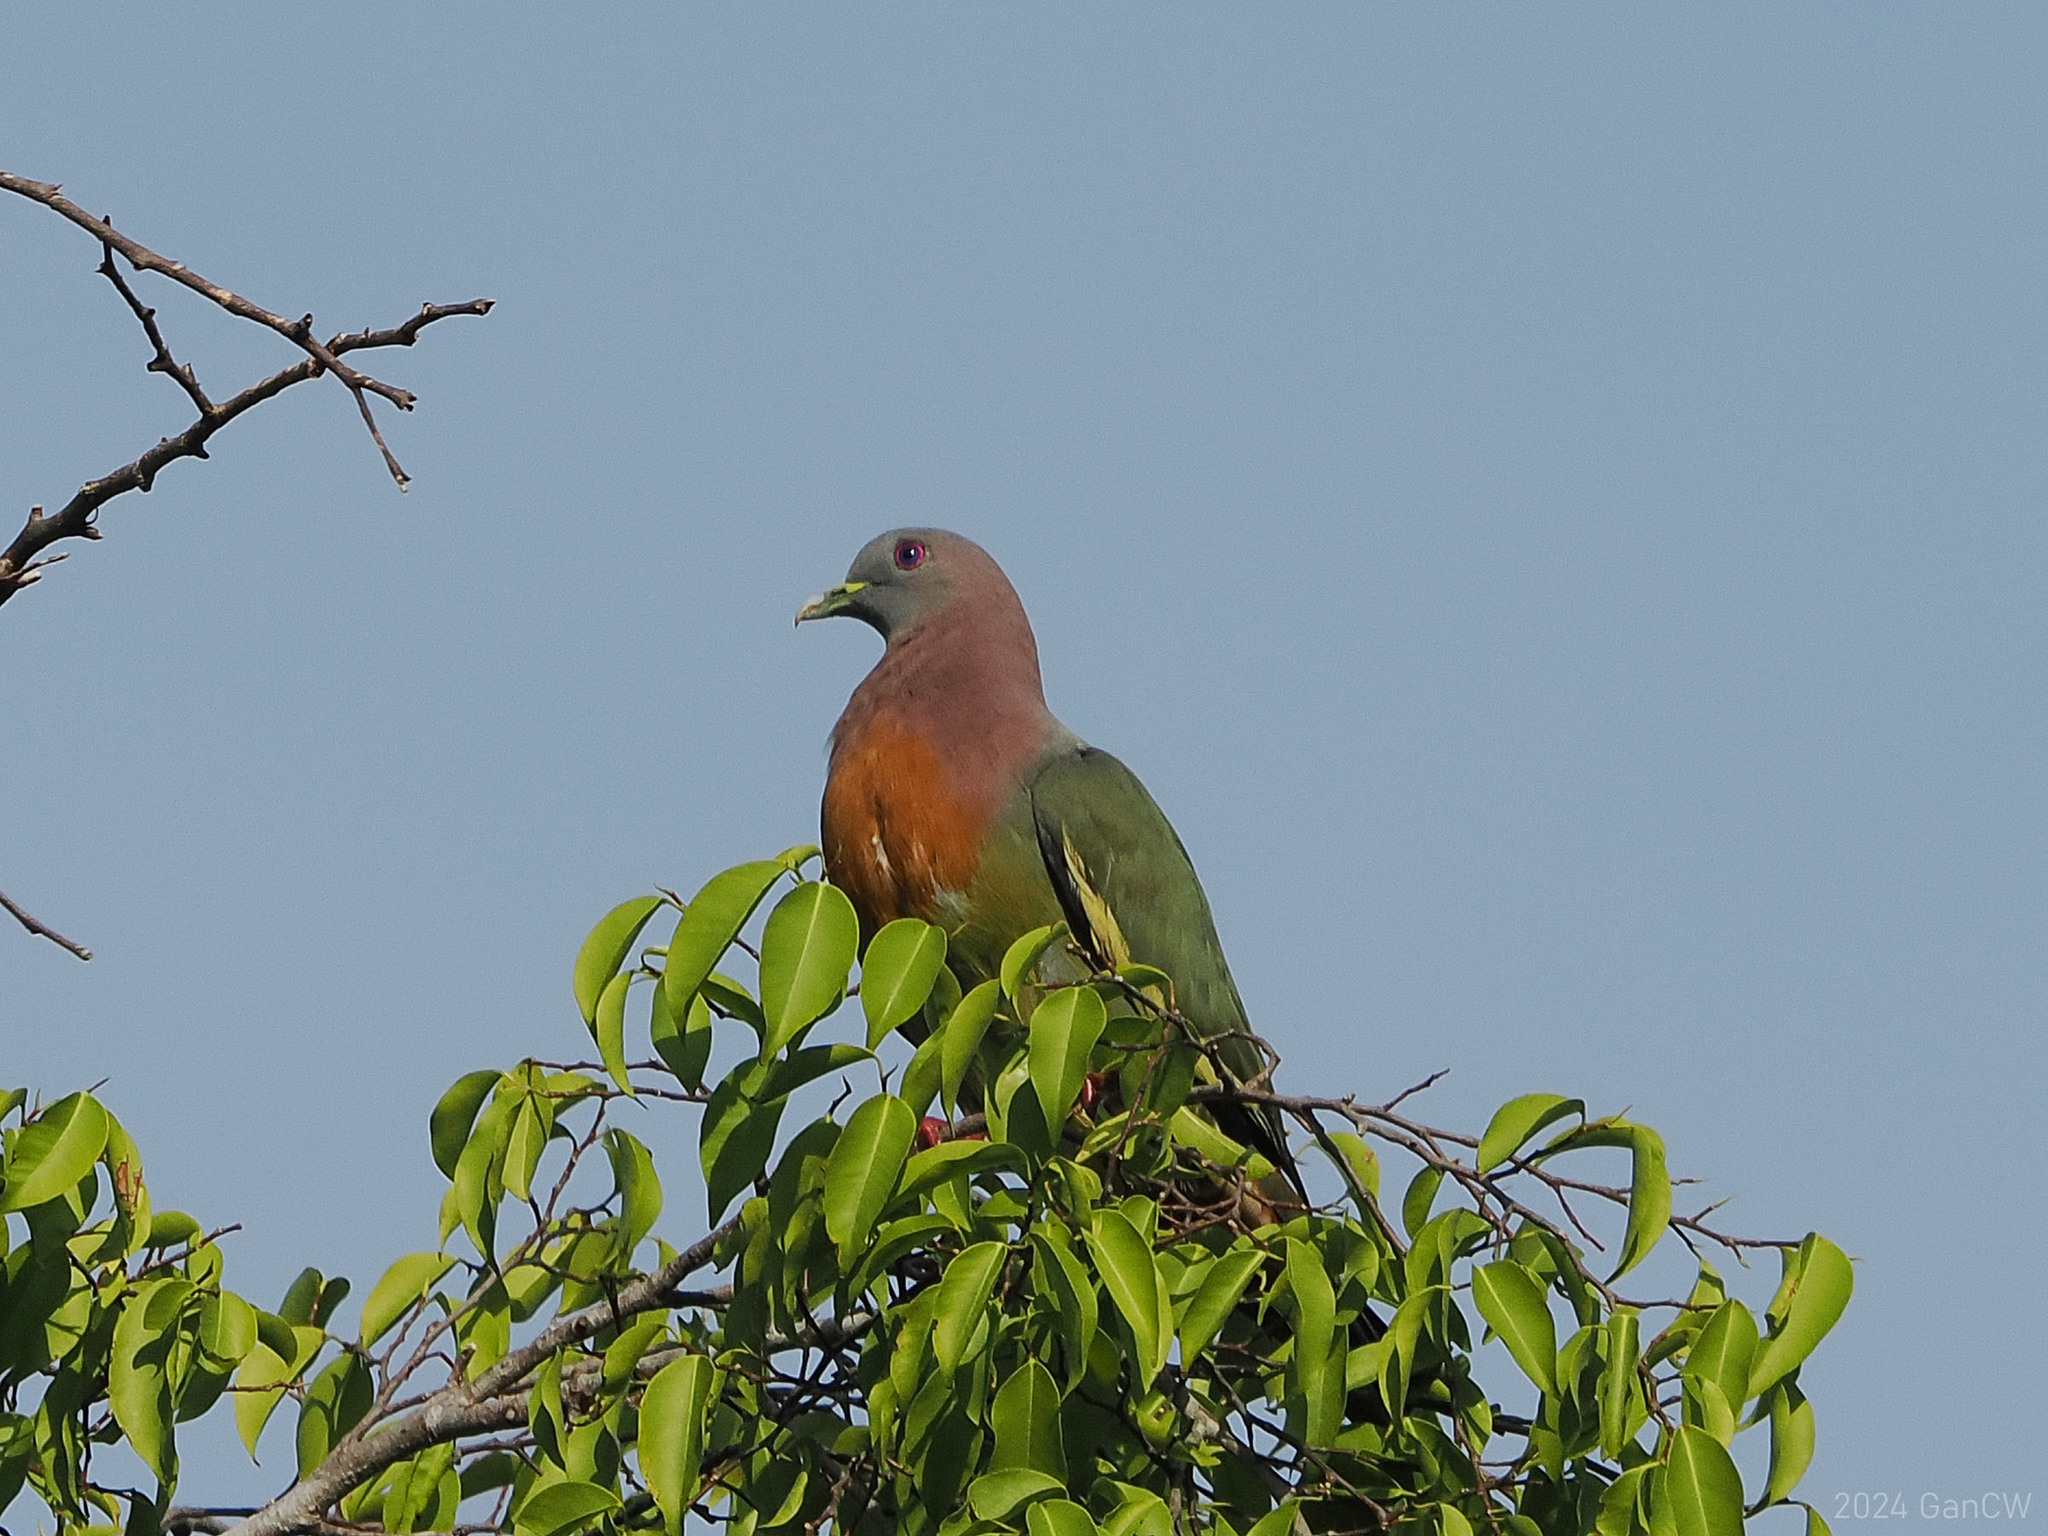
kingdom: Animalia
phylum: Chordata
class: Aves
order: Columbiformes
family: Columbidae
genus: Treron
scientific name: Treron vernans
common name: Pink-necked green pigeon
